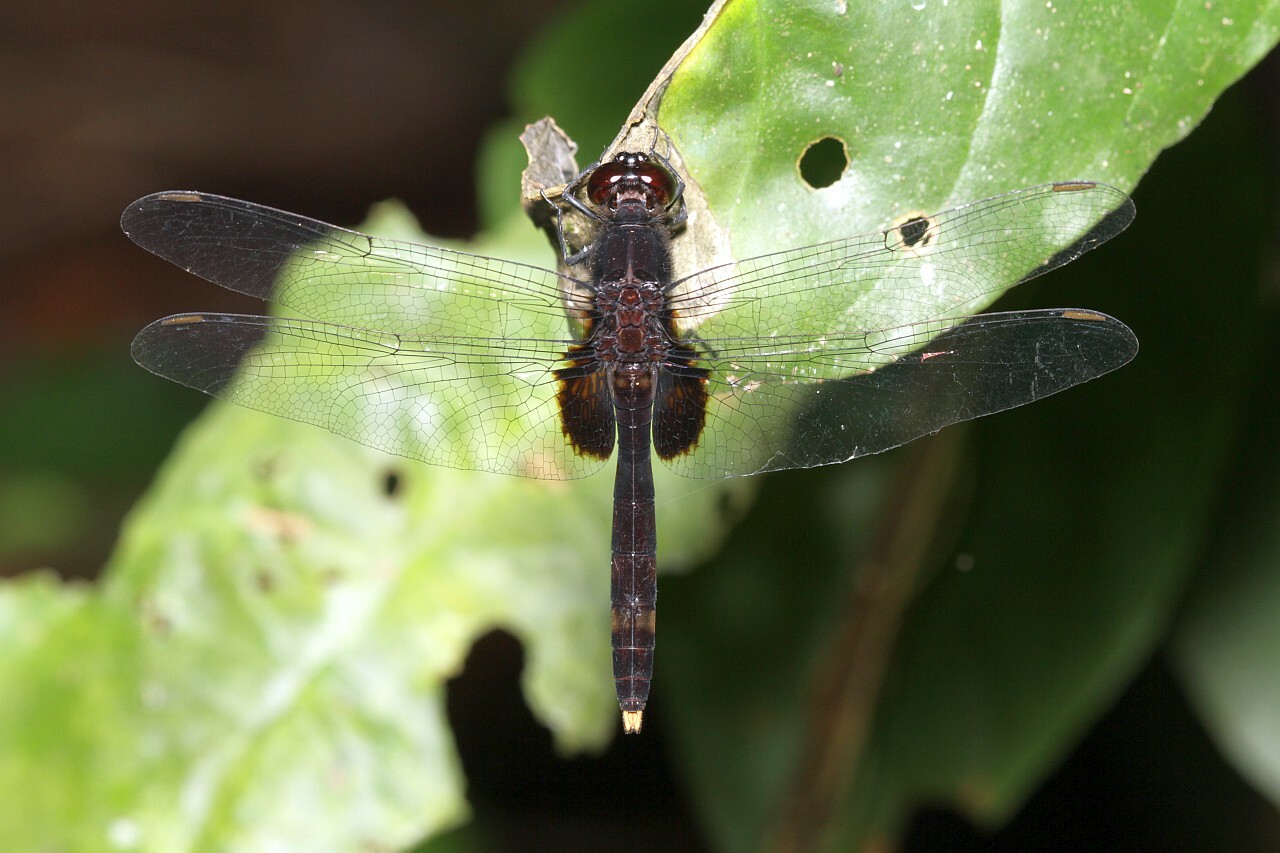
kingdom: Animalia
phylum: Arthropoda
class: Insecta
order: Odonata
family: Libellulidae
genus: Erythemis
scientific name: Erythemis attala
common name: Black pondhawk
